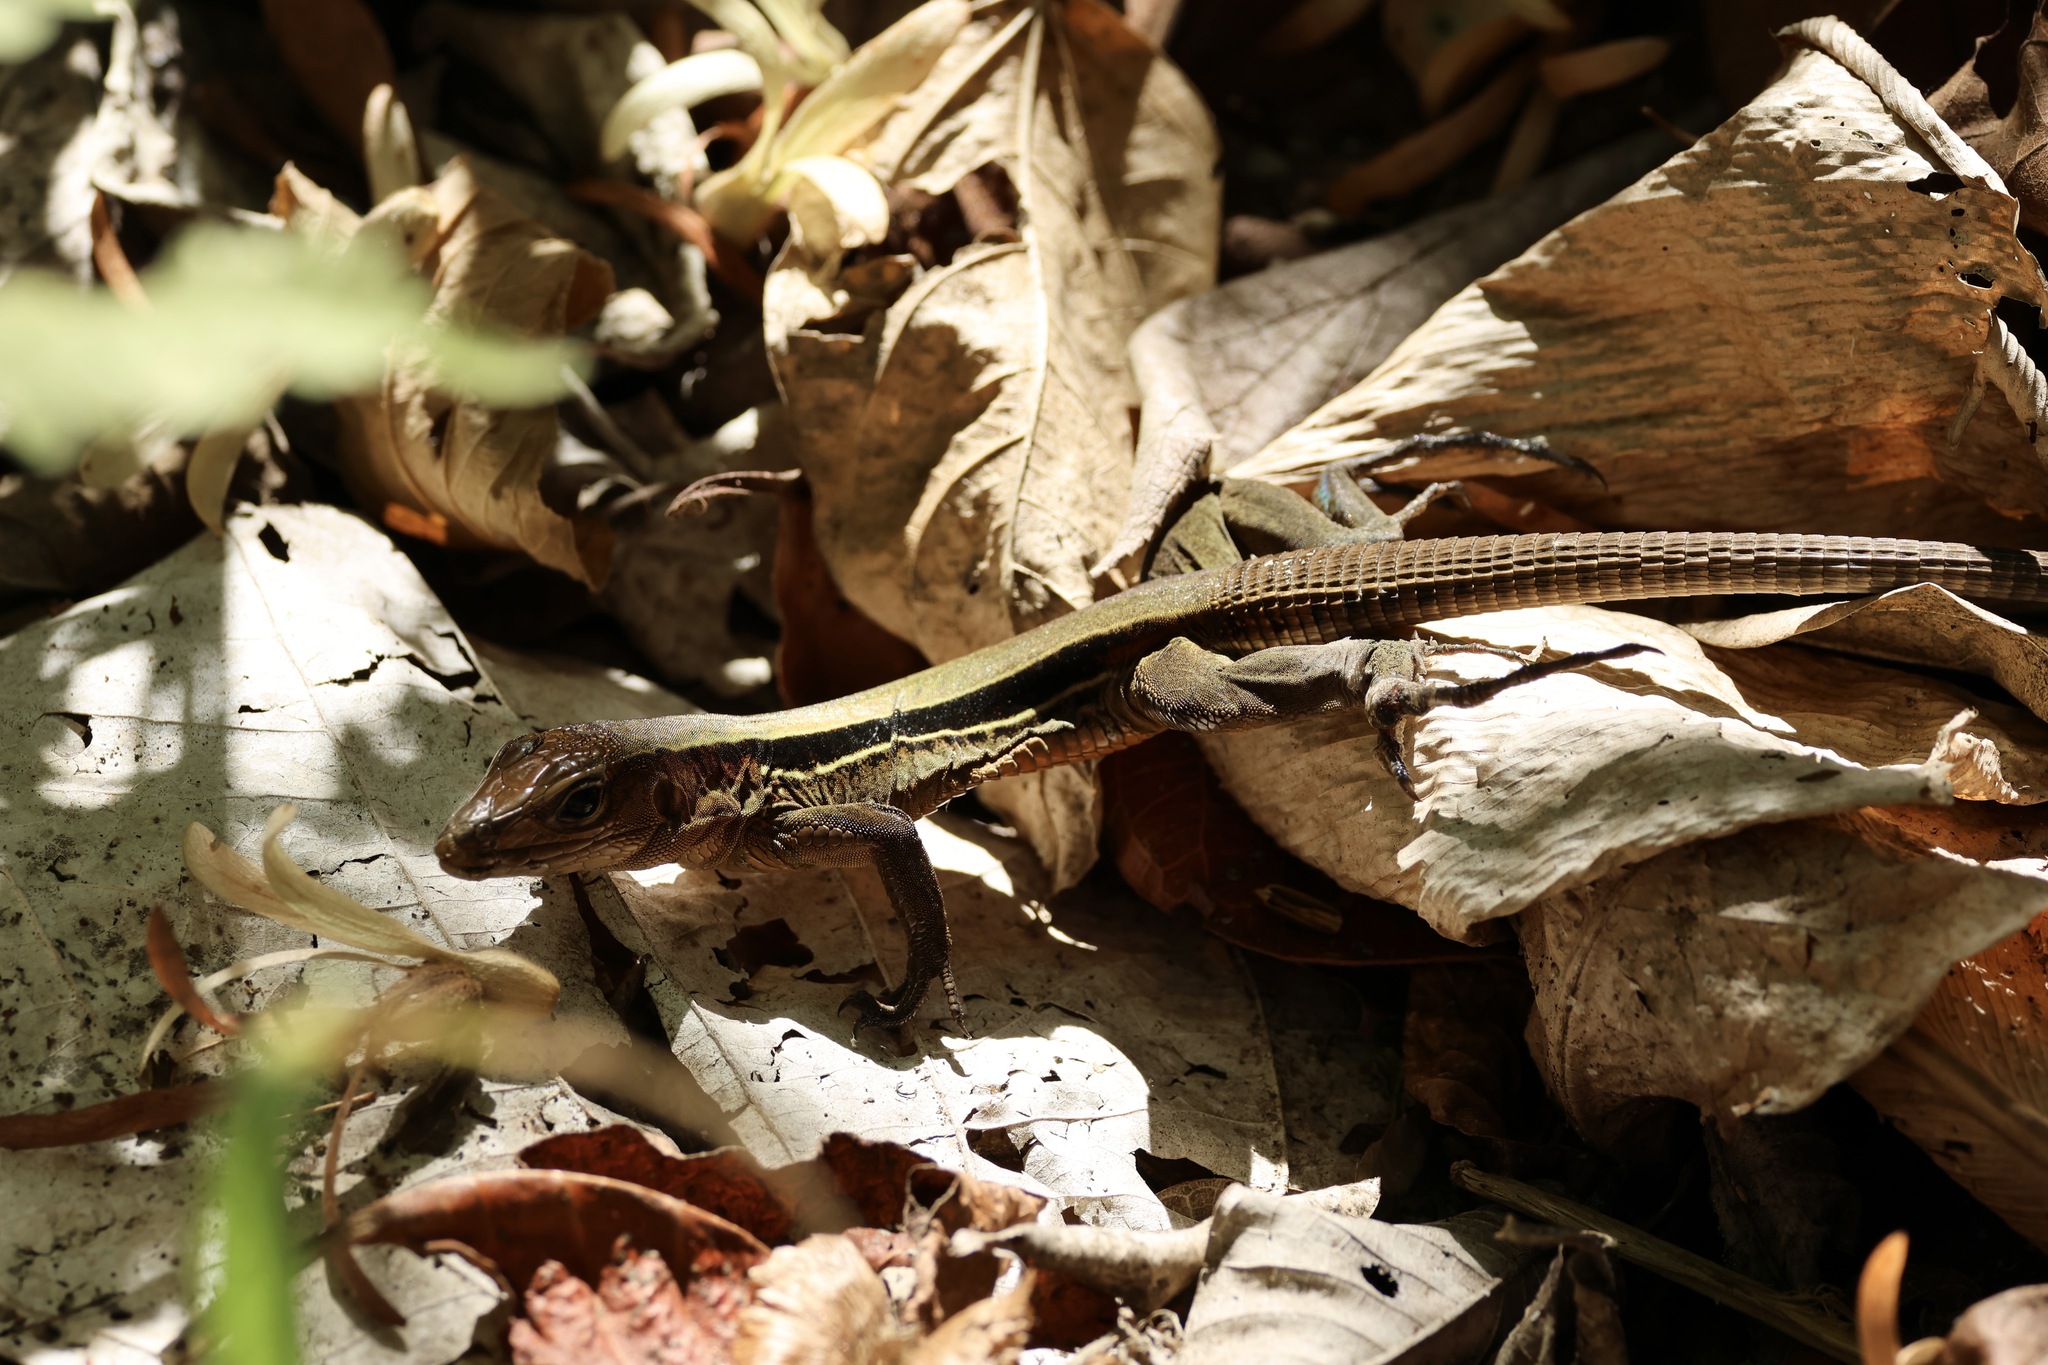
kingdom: Animalia
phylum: Chordata
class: Squamata
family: Teiidae
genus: Holcosus
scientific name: Holcosus quadrilineatus
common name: Four-lined ameiva
